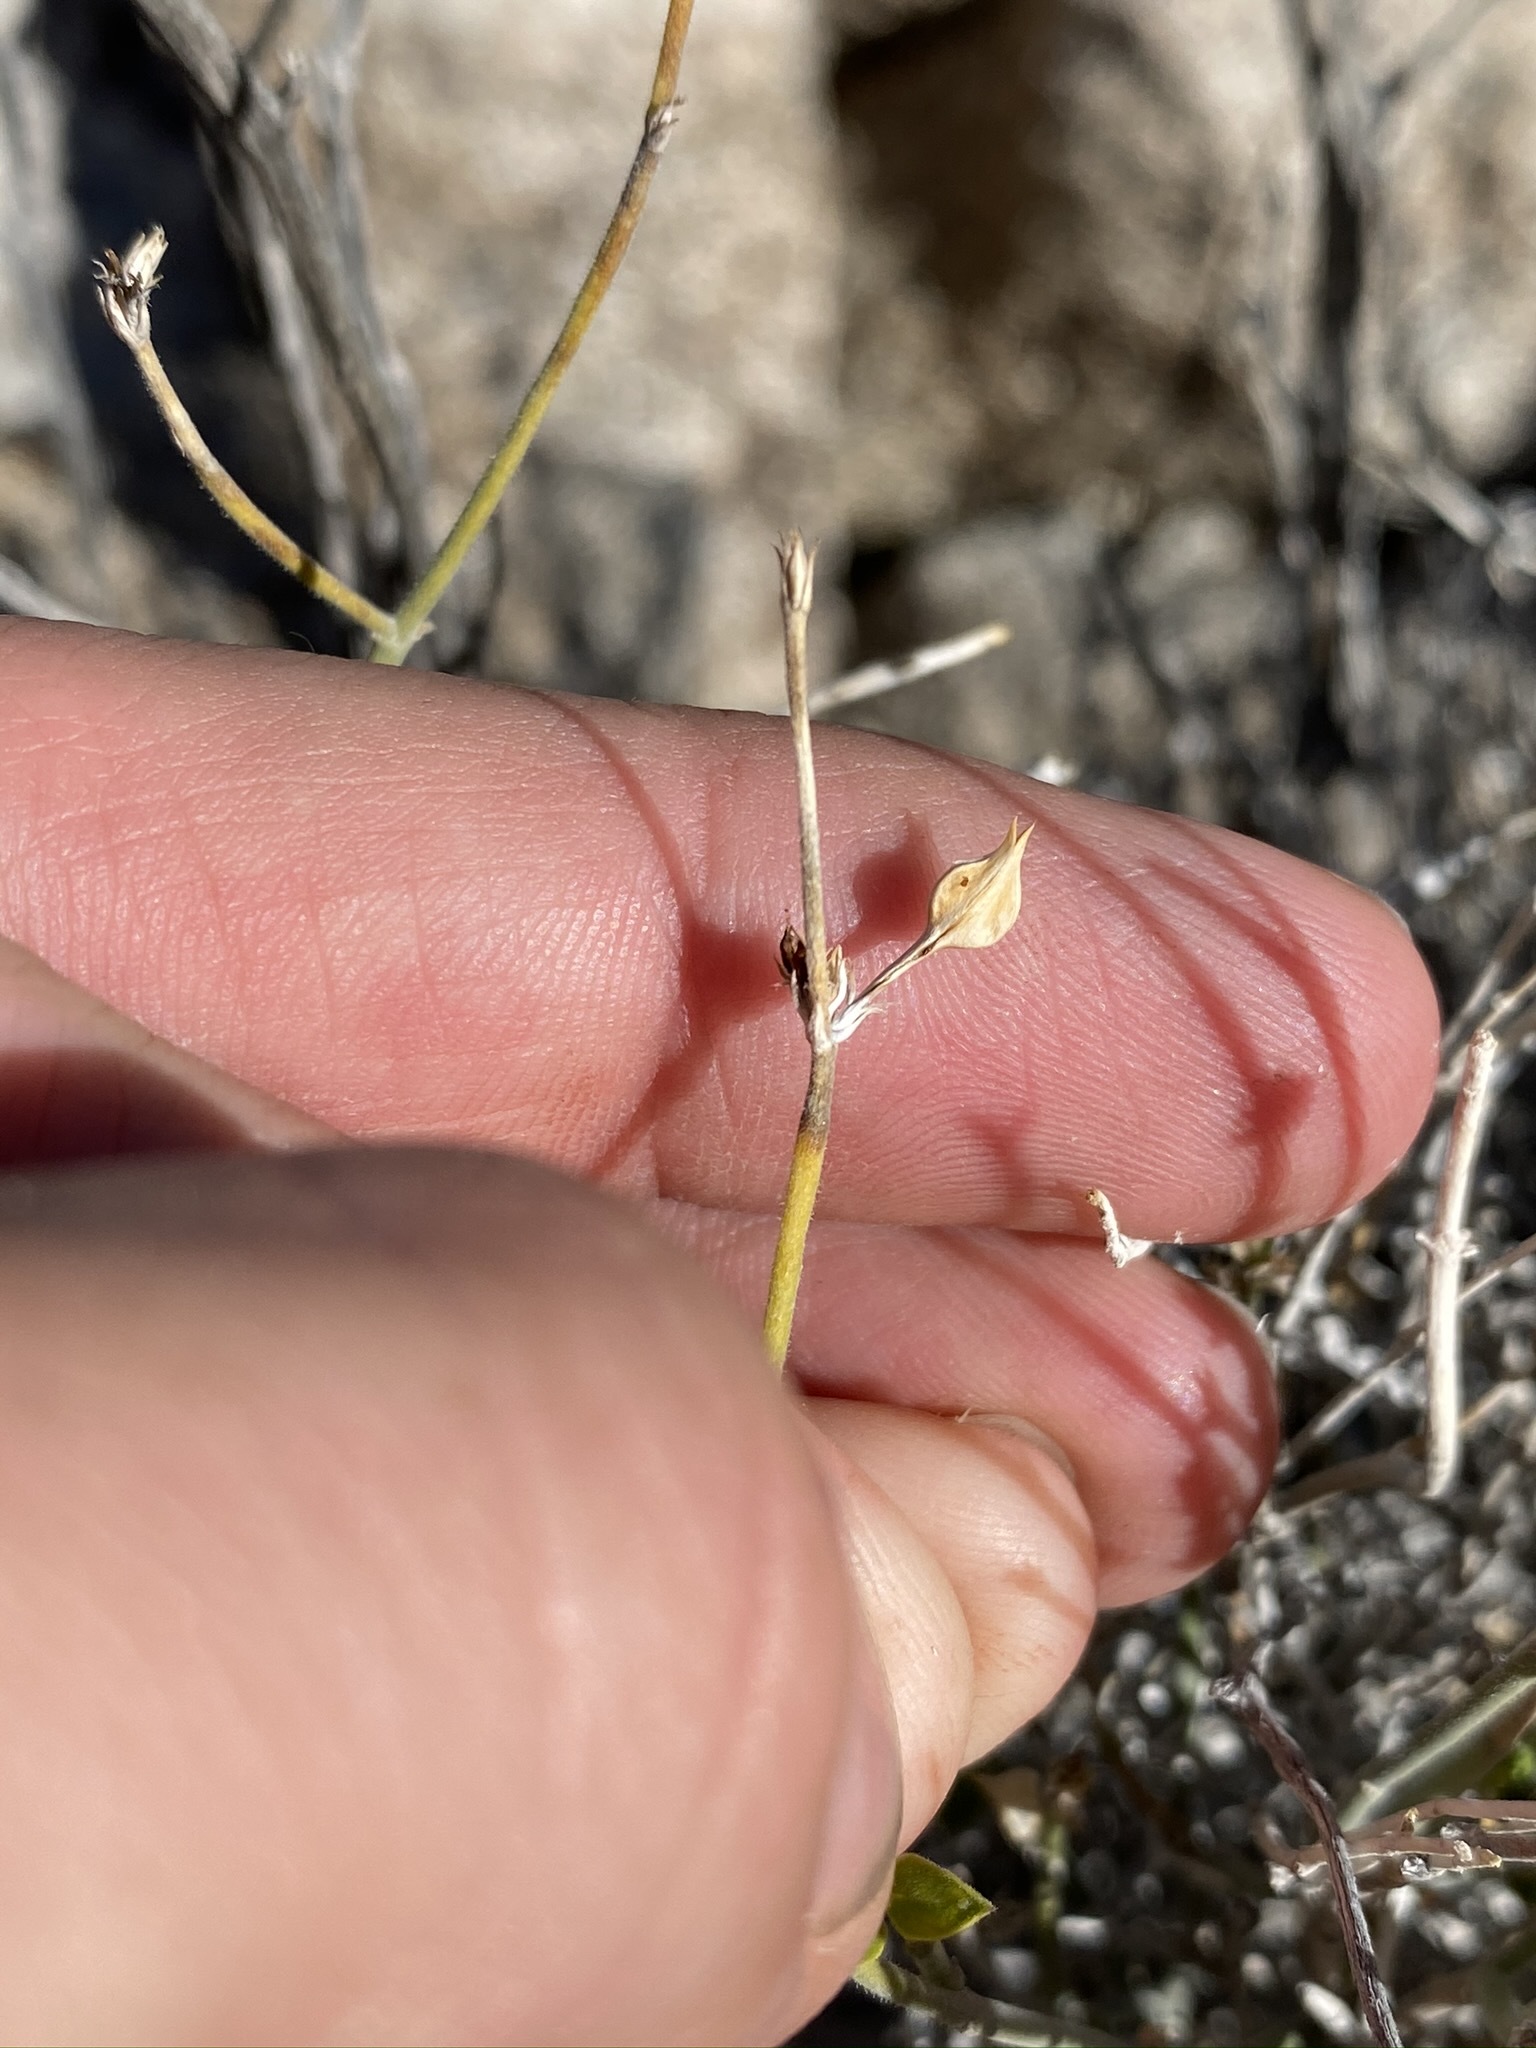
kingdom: Plantae
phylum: Tracheophyta
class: Magnoliopsida
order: Lamiales
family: Acanthaceae
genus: Carlowrightia
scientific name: Carlowrightia arizonica
